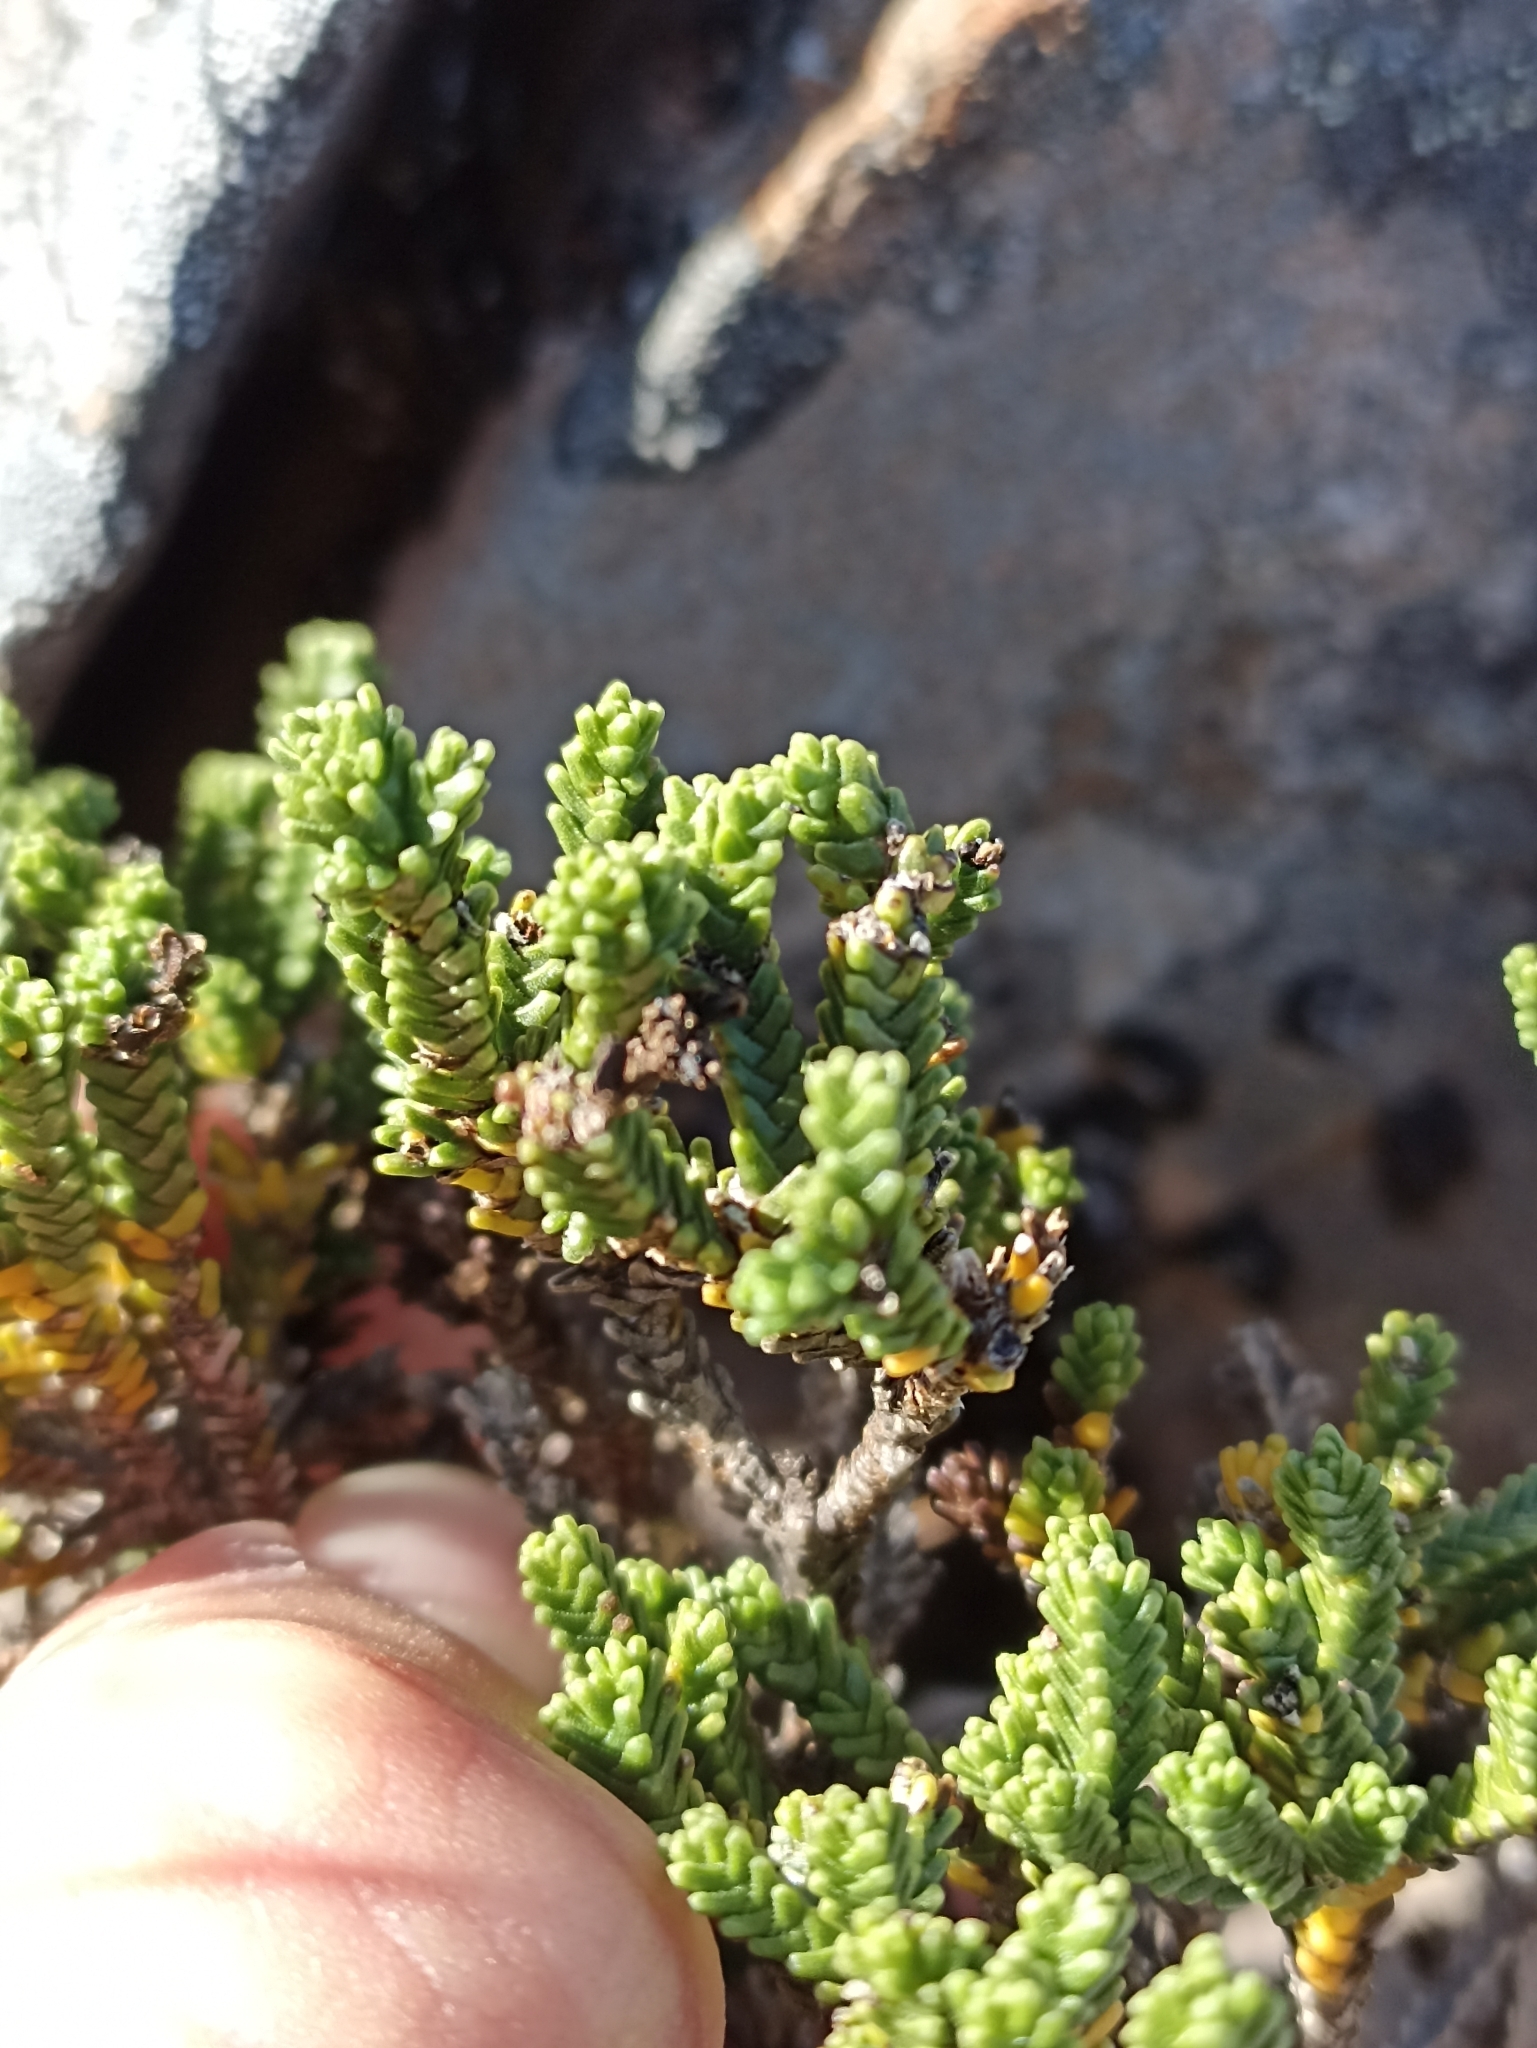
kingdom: Plantae
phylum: Tracheophyta
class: Magnoliopsida
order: Lamiales
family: Plantaginaceae
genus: Veronica
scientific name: Veronica tumida
